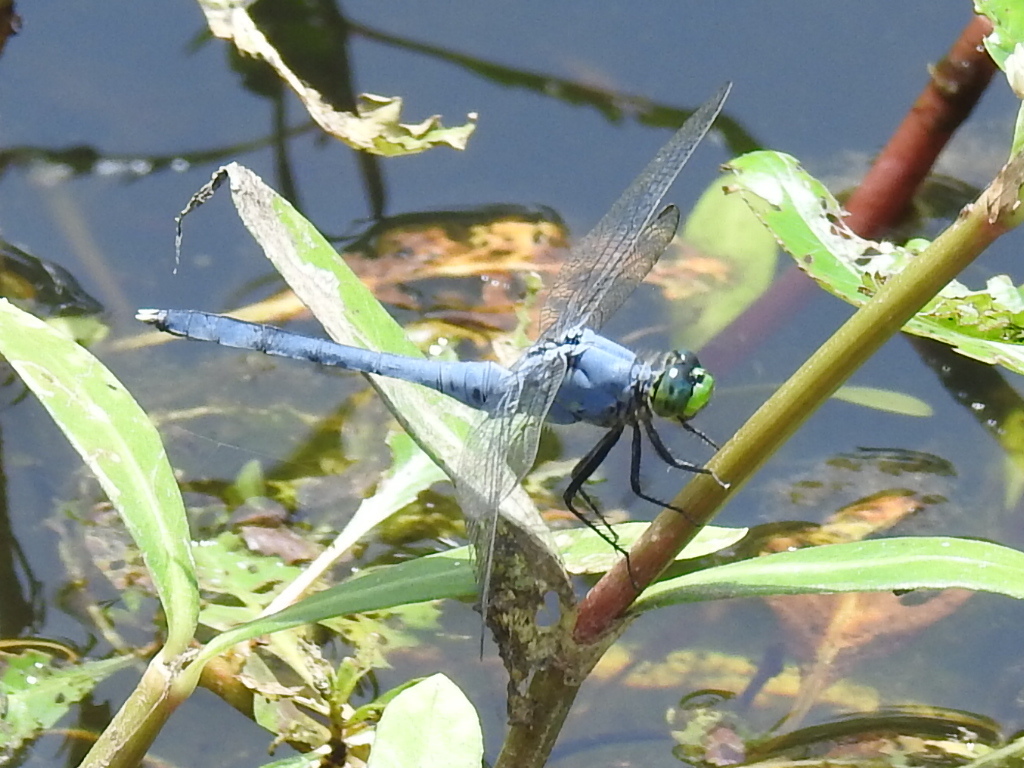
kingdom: Animalia
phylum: Arthropoda
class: Insecta
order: Odonata
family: Libellulidae
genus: Erythemis
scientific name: Erythemis simplicicollis
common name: Eastern pondhawk
